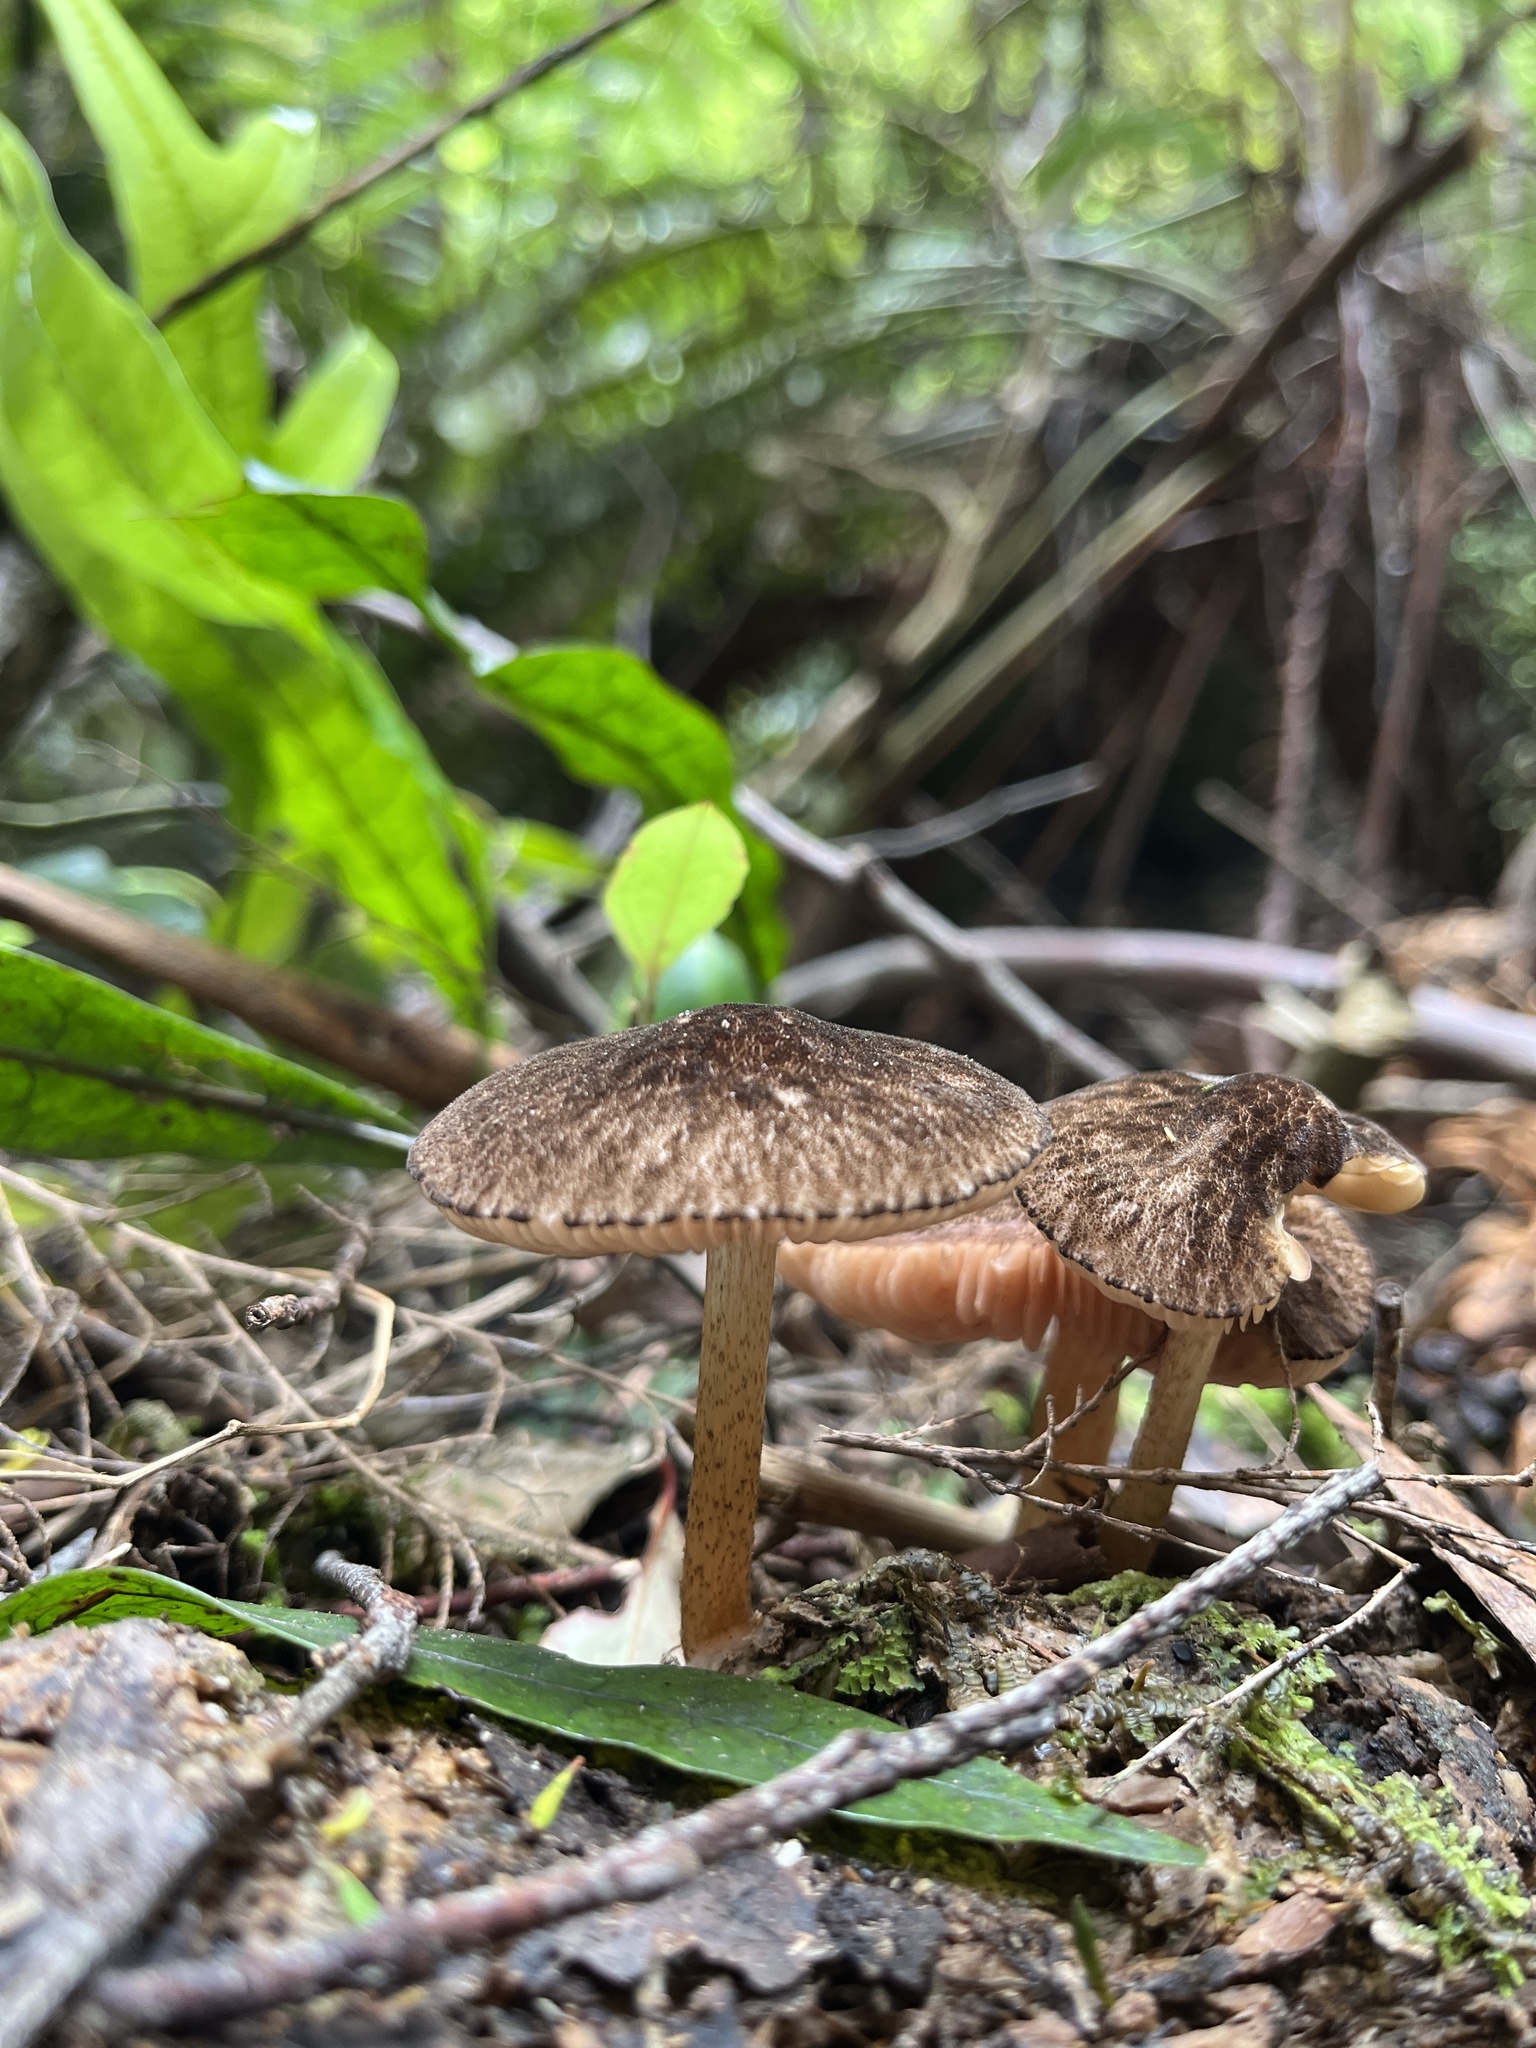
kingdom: Fungi
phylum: Basidiomycota
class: Agaricomycetes
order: Agaricales
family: Pluteaceae
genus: Pluteus
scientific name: Pluteus perroseus
